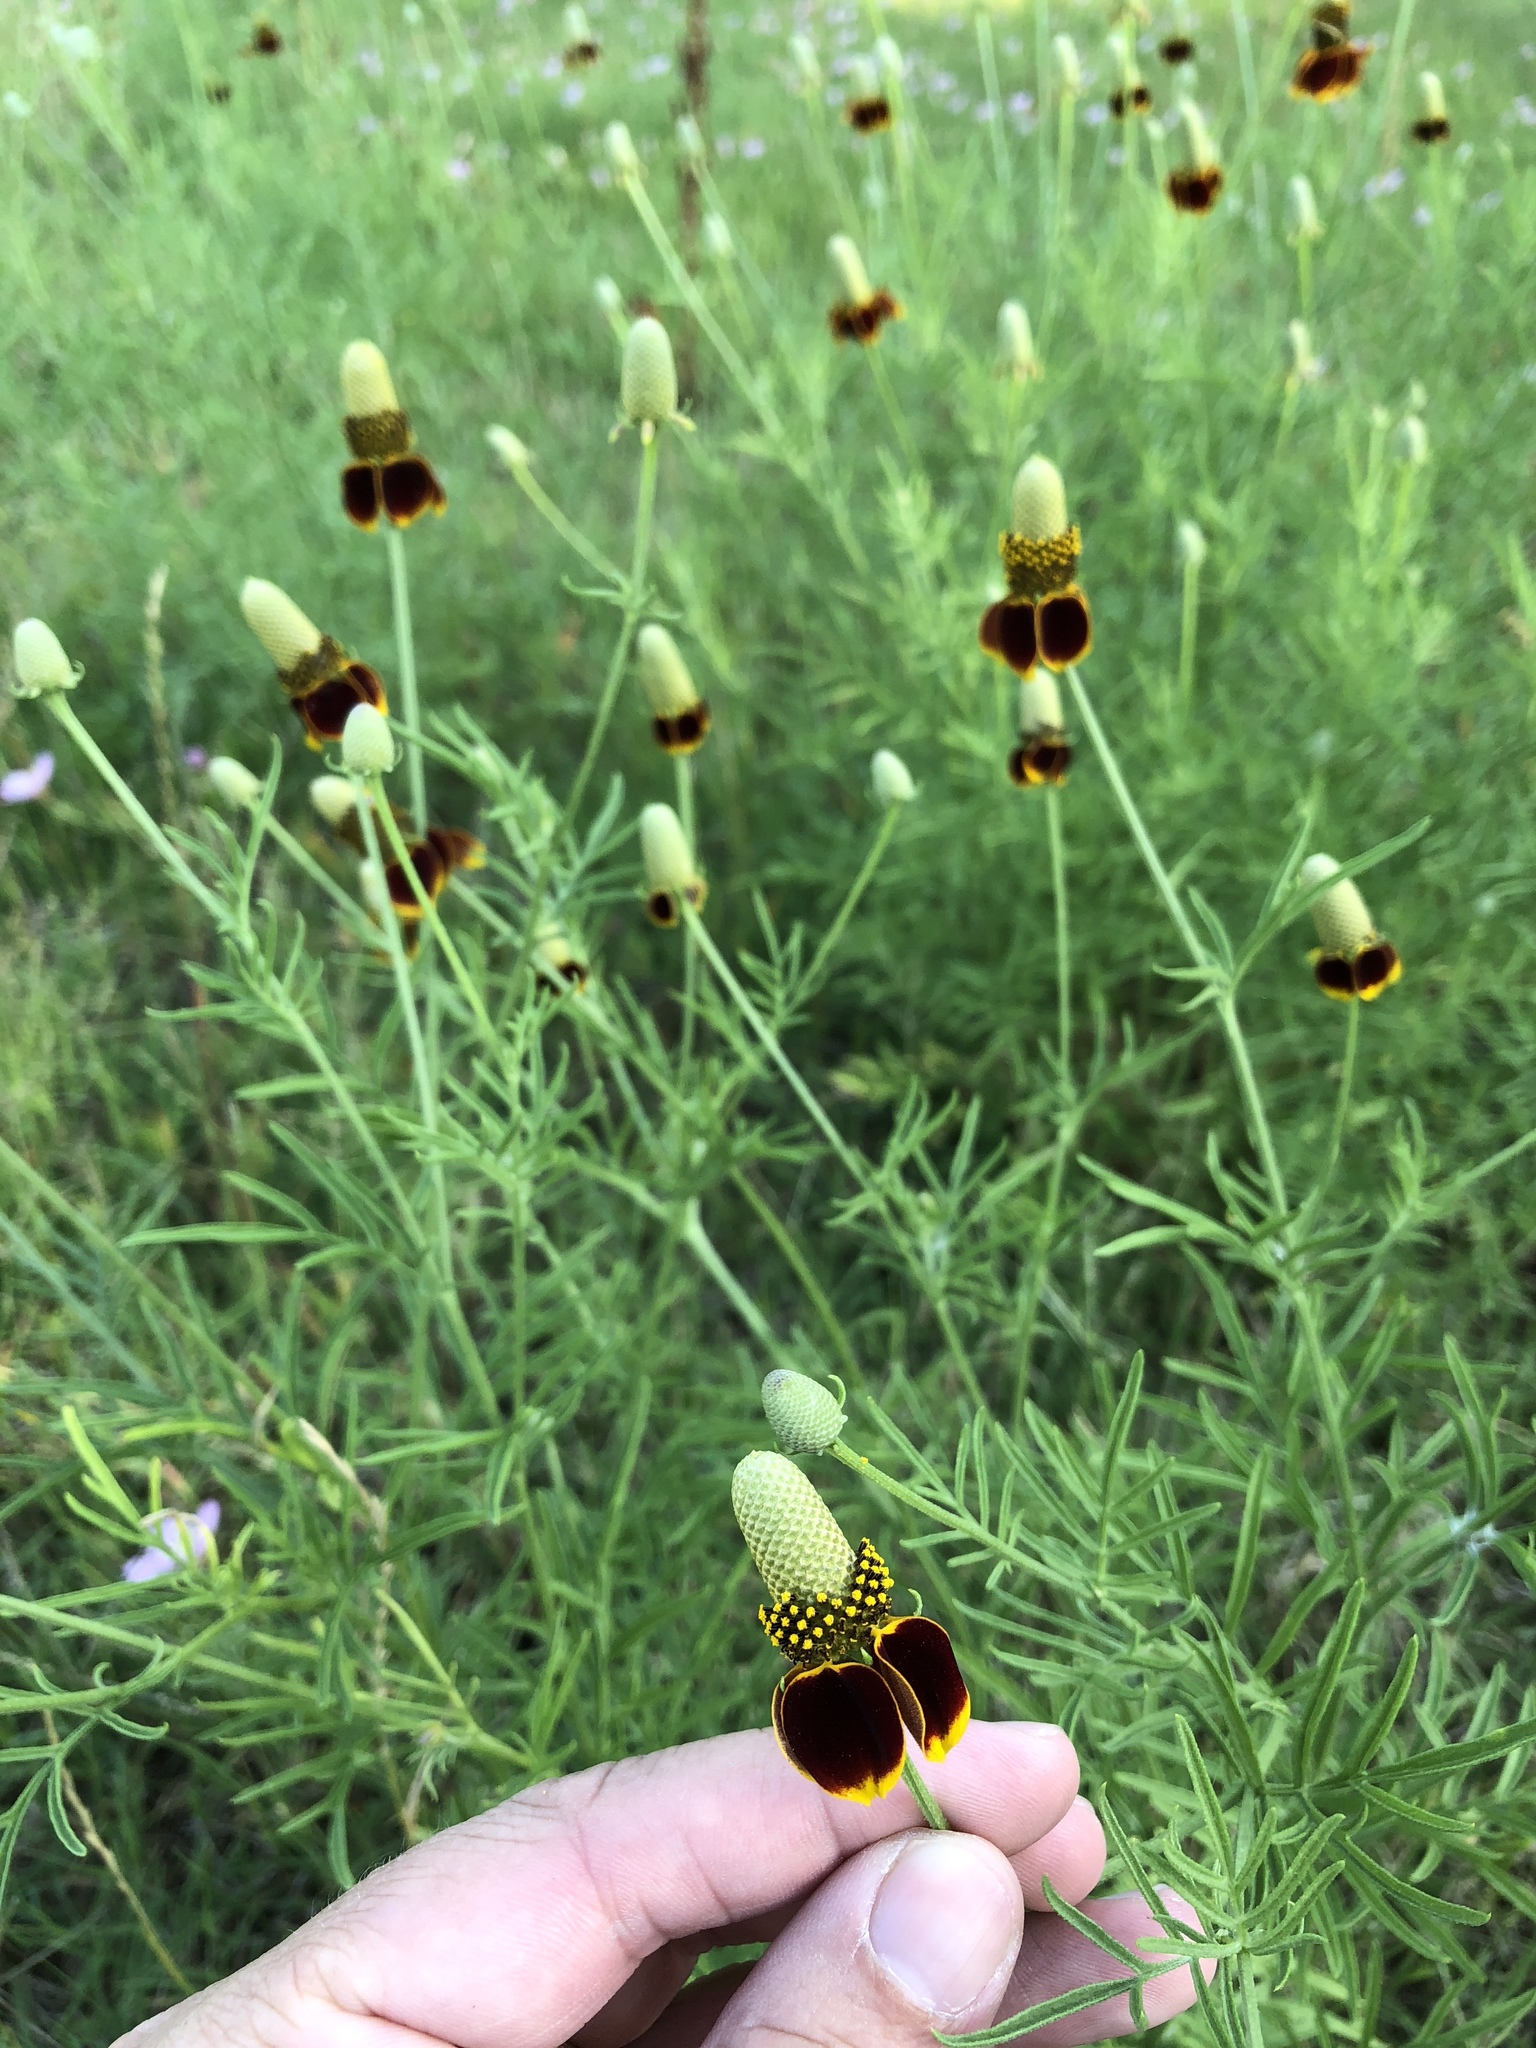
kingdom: Plantae
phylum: Tracheophyta
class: Magnoliopsida
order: Asterales
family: Asteraceae
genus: Ratibida
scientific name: Ratibida columnifera
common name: Prairie coneflower
